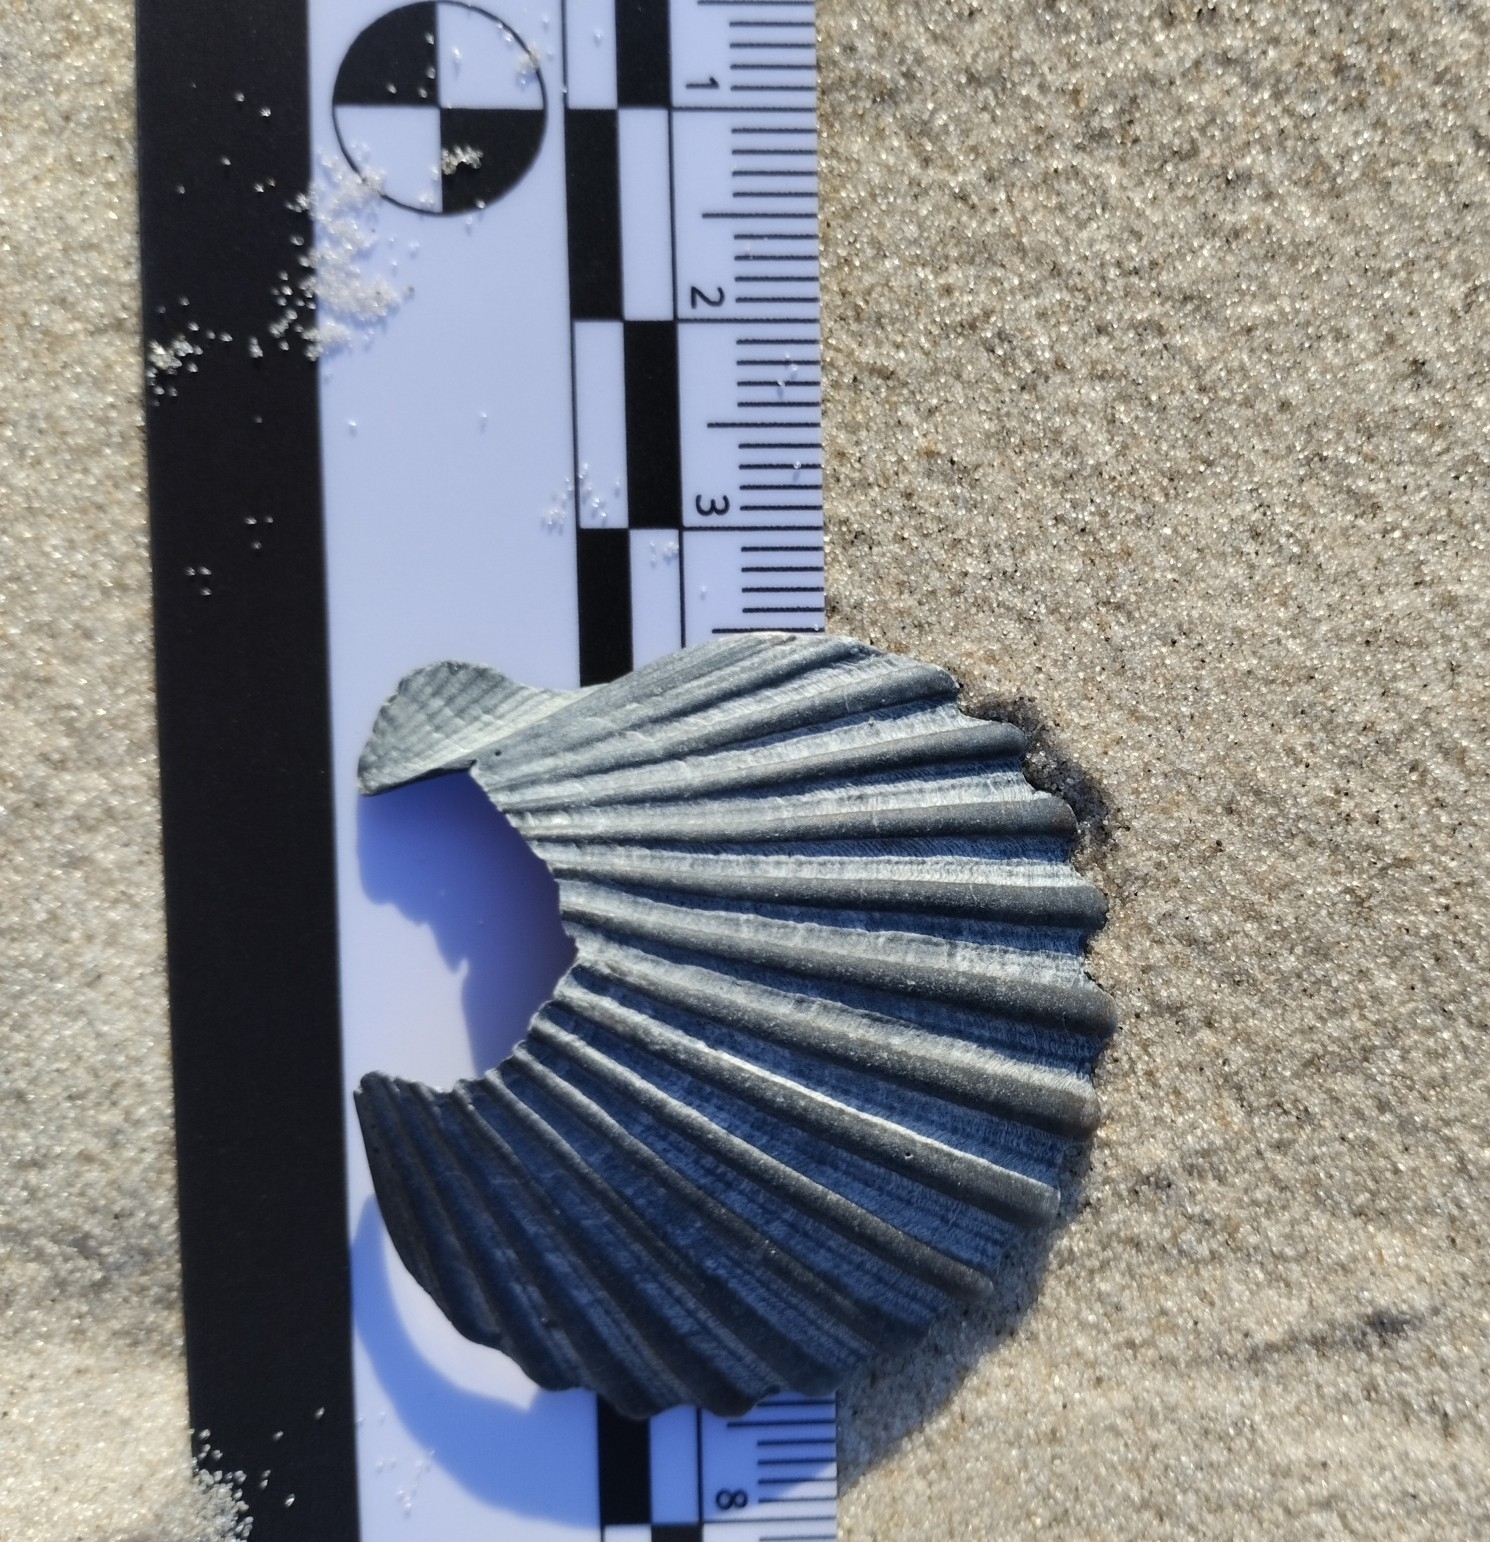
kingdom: Animalia
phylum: Mollusca
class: Bivalvia
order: Pectinida
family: Pectinidae
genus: Aequipecten
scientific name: Aequipecten tehuelchus
